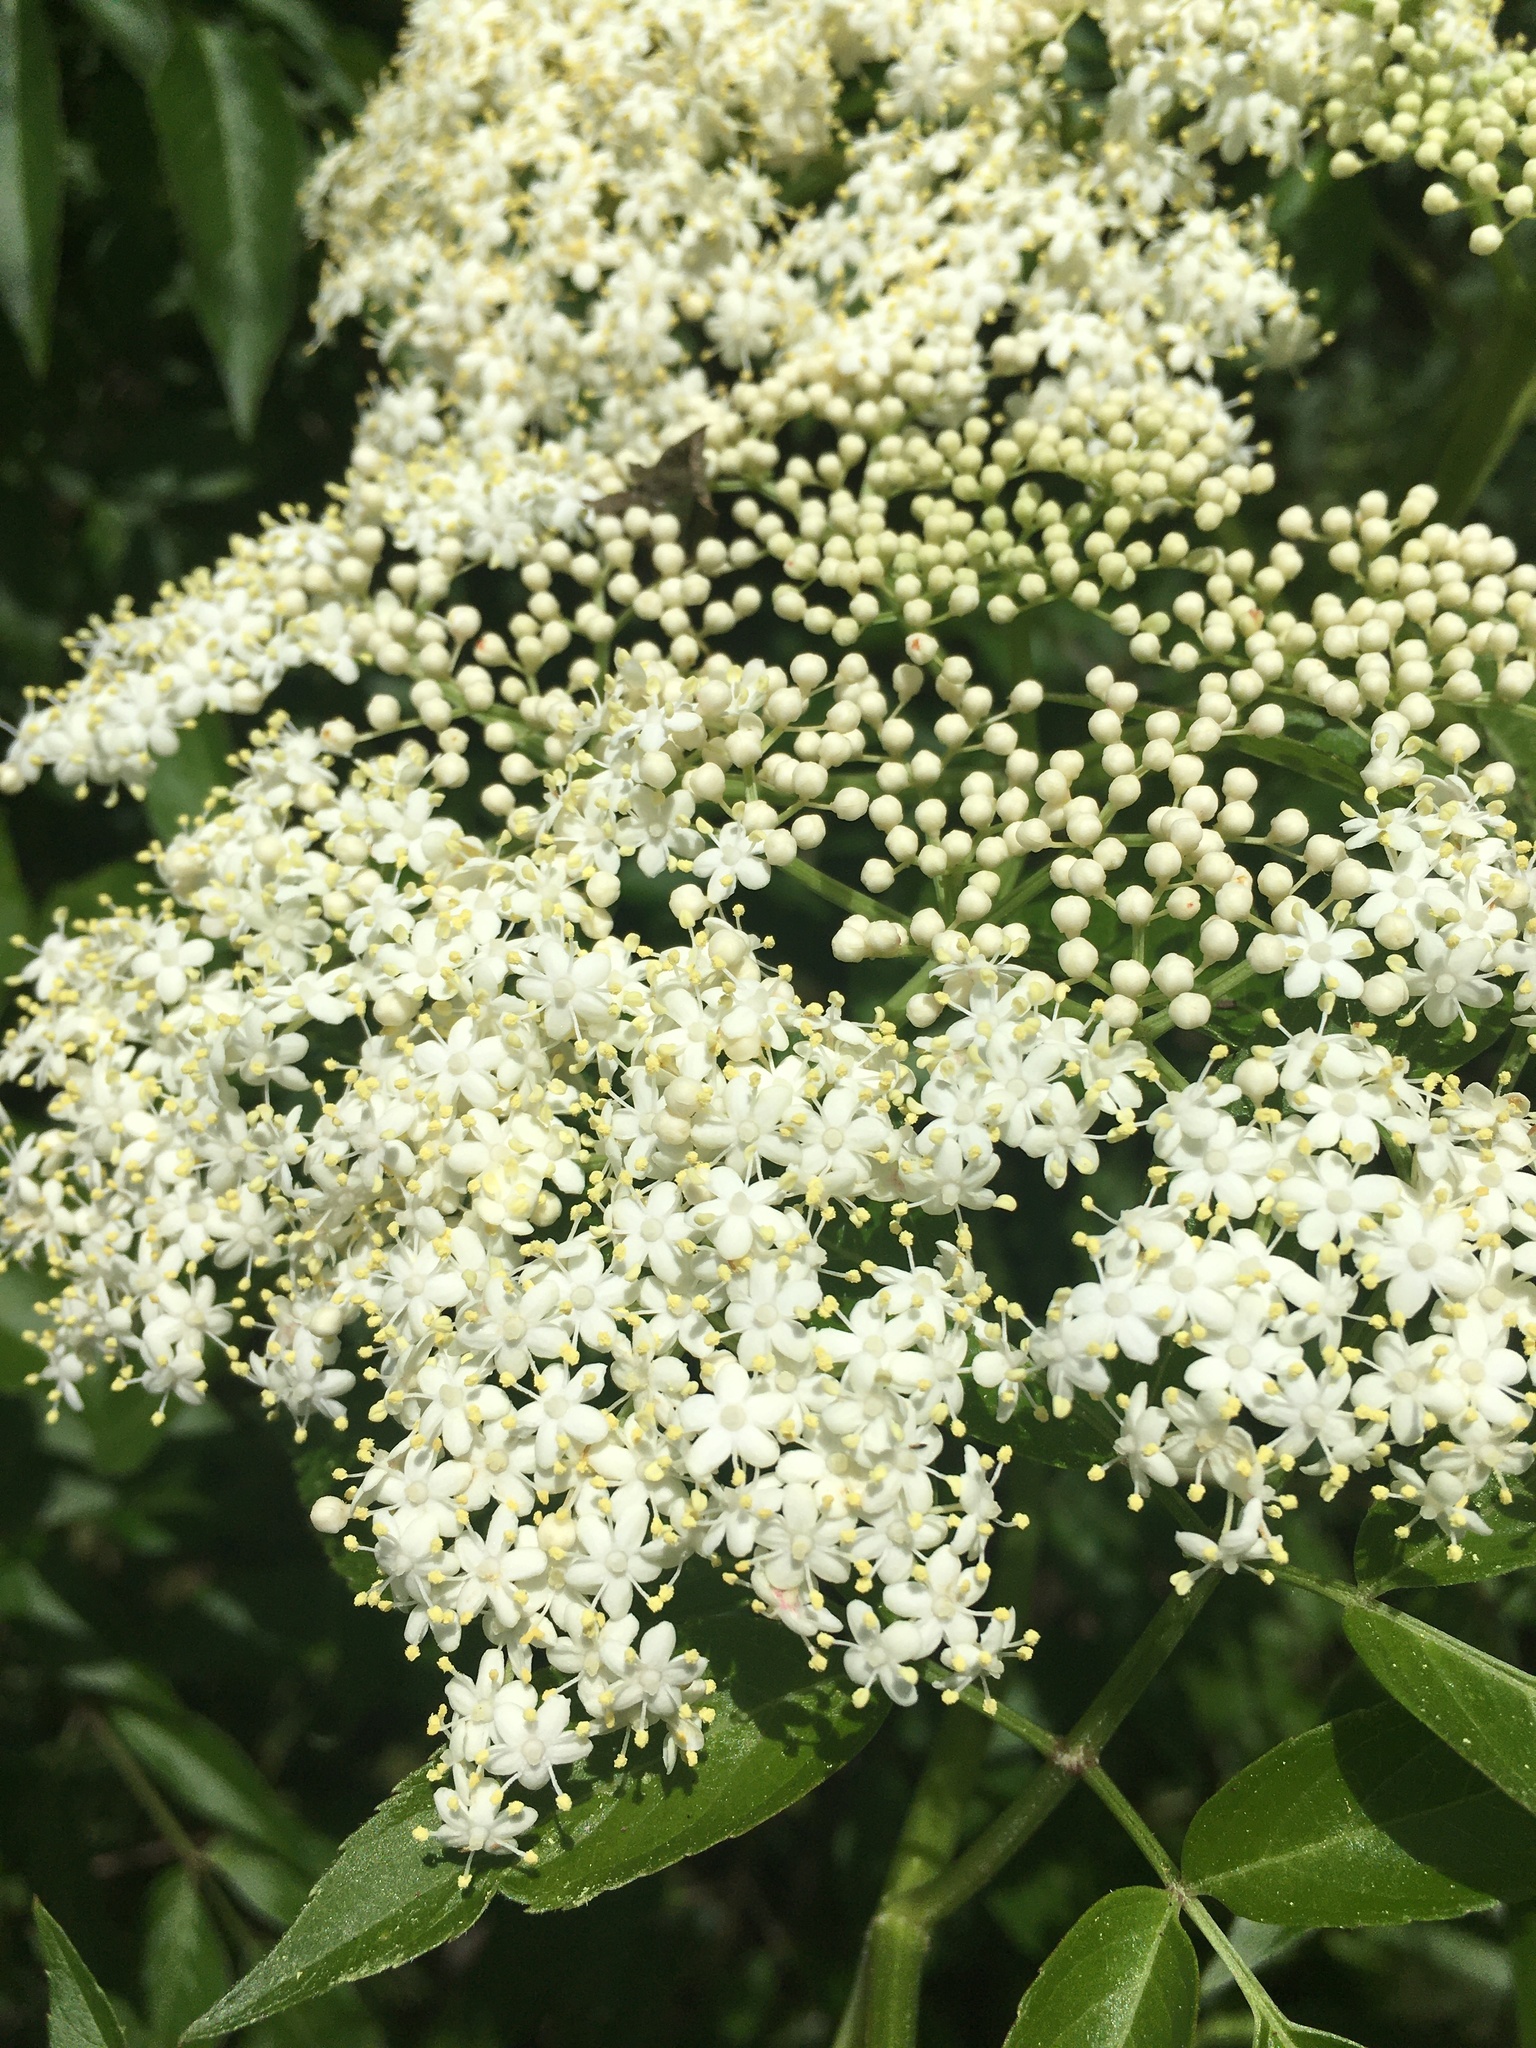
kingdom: Plantae
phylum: Tracheophyta
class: Magnoliopsida
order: Dipsacales
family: Viburnaceae
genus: Sambucus
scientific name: Sambucus canadensis
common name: American elder
